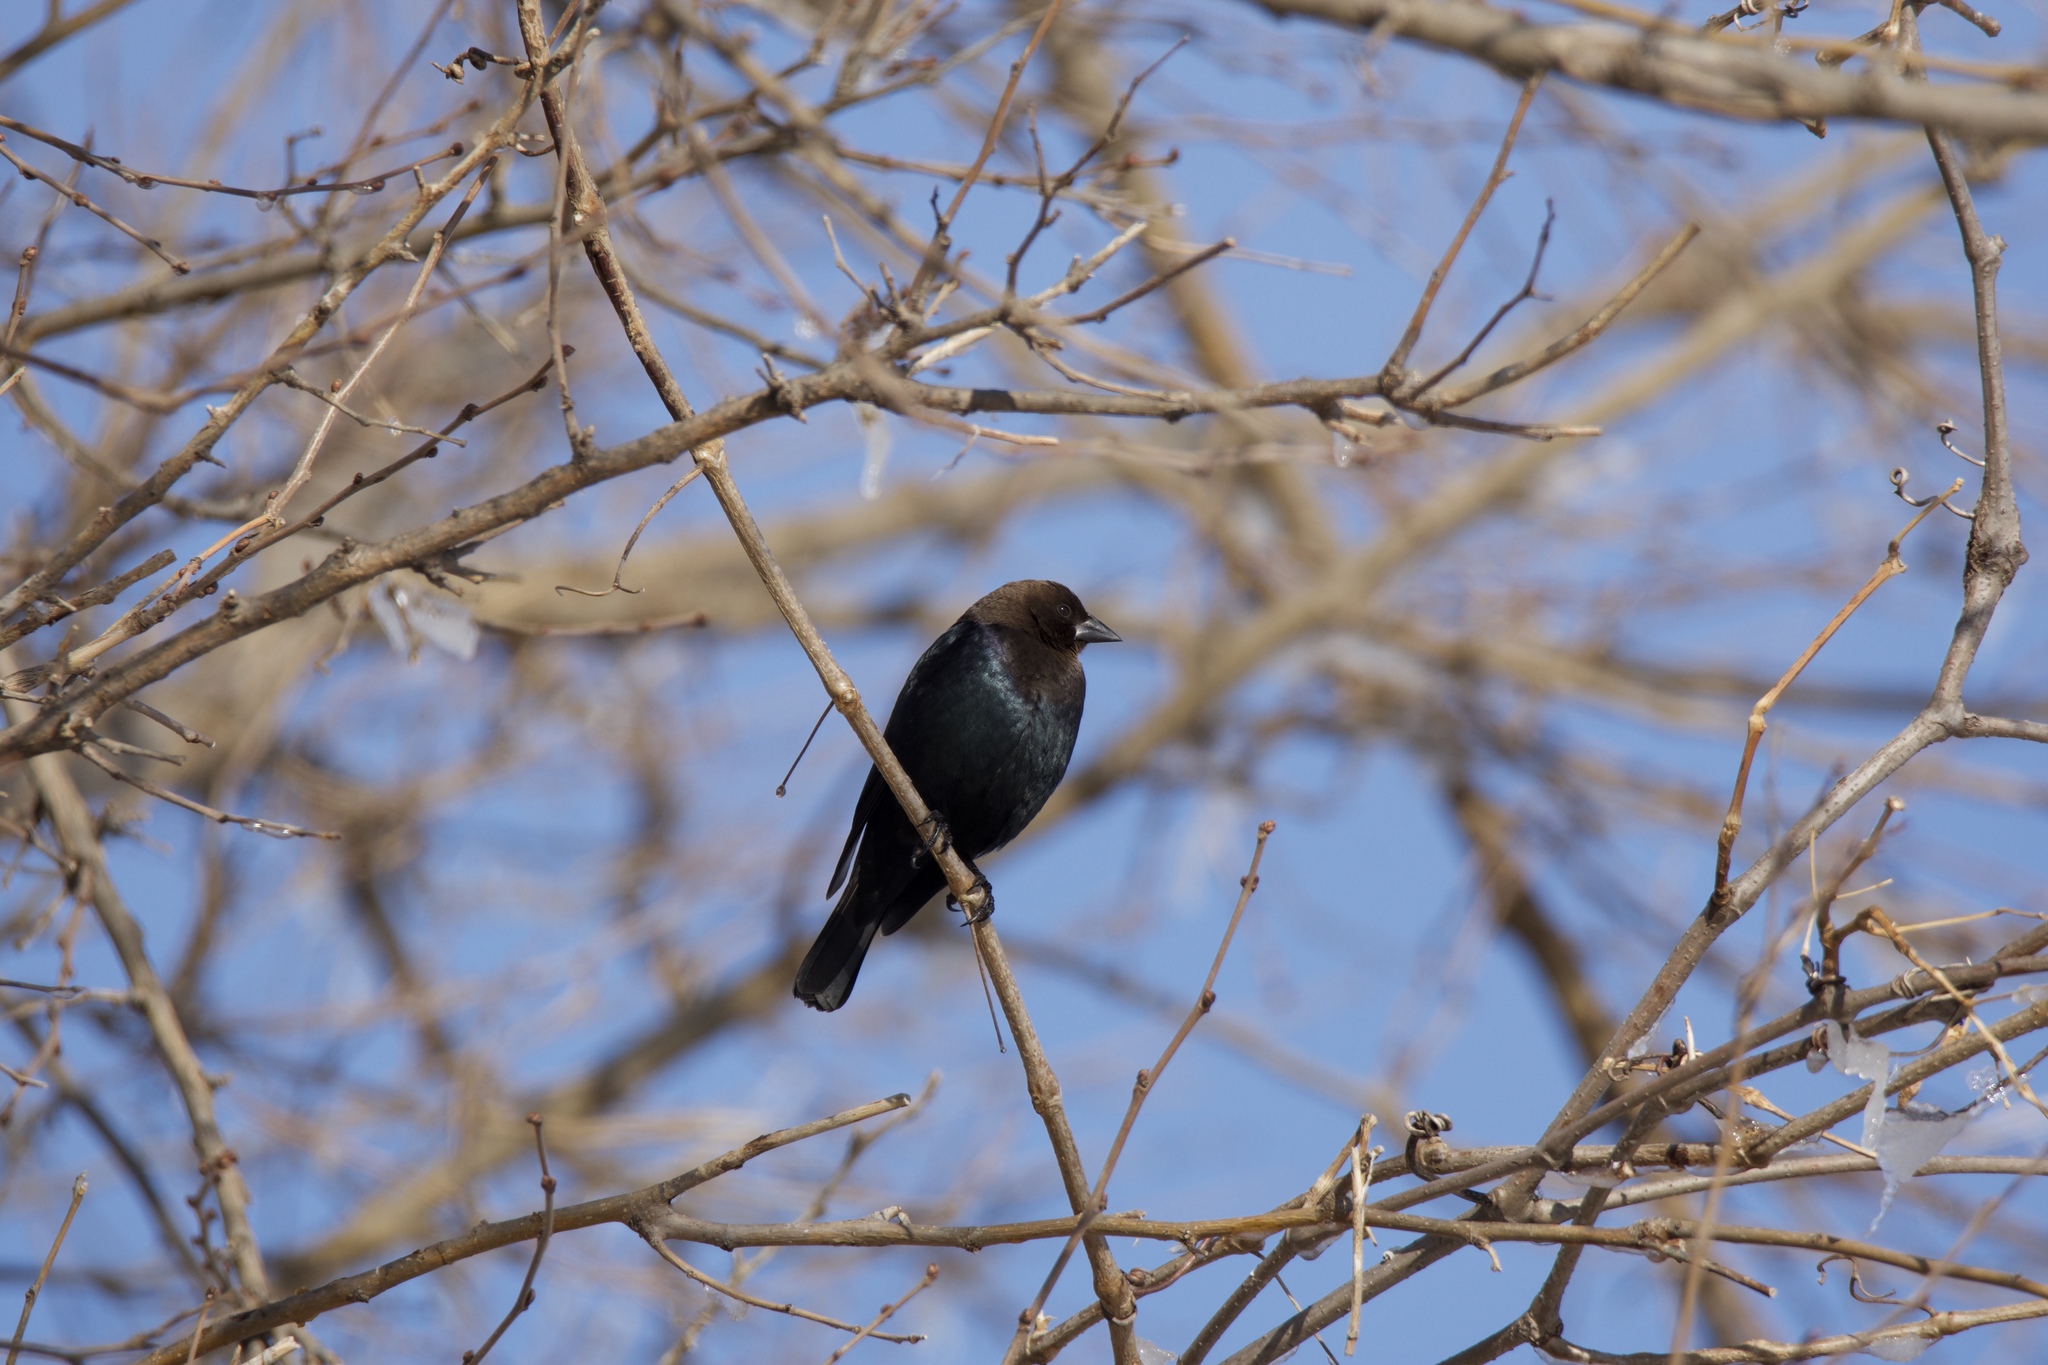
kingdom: Animalia
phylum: Chordata
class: Aves
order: Passeriformes
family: Icteridae
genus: Molothrus
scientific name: Molothrus ater
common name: Brown-headed cowbird
